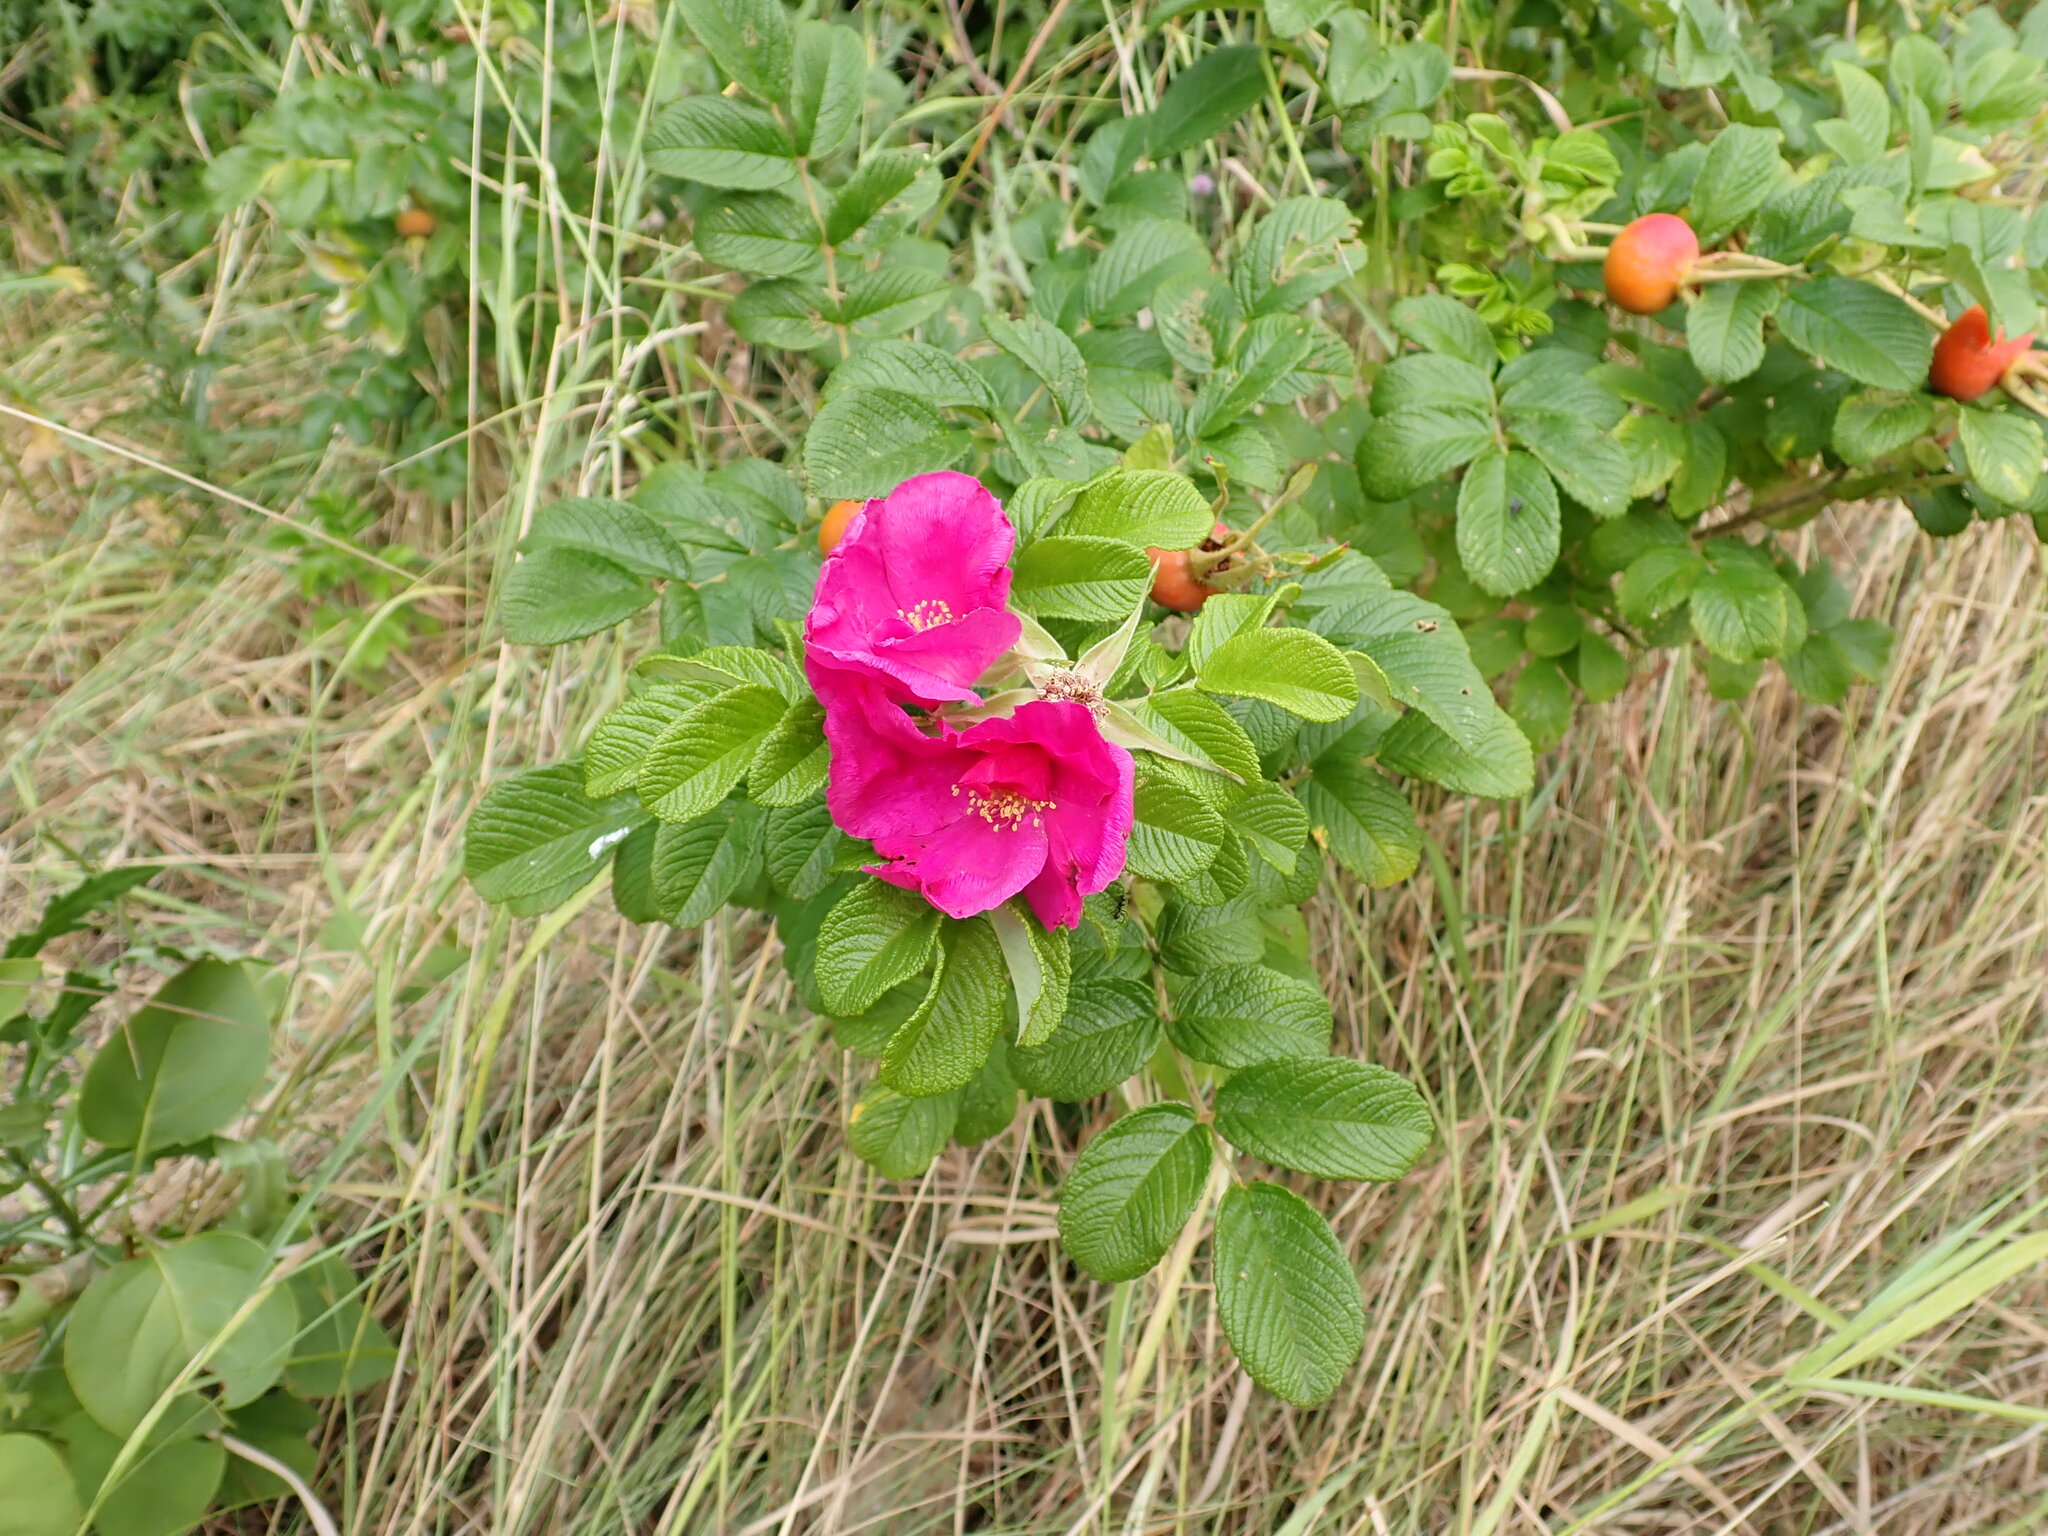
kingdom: Plantae
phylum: Tracheophyta
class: Magnoliopsida
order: Rosales
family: Rosaceae
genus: Rosa
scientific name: Rosa rugosa
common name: Japanese rose
